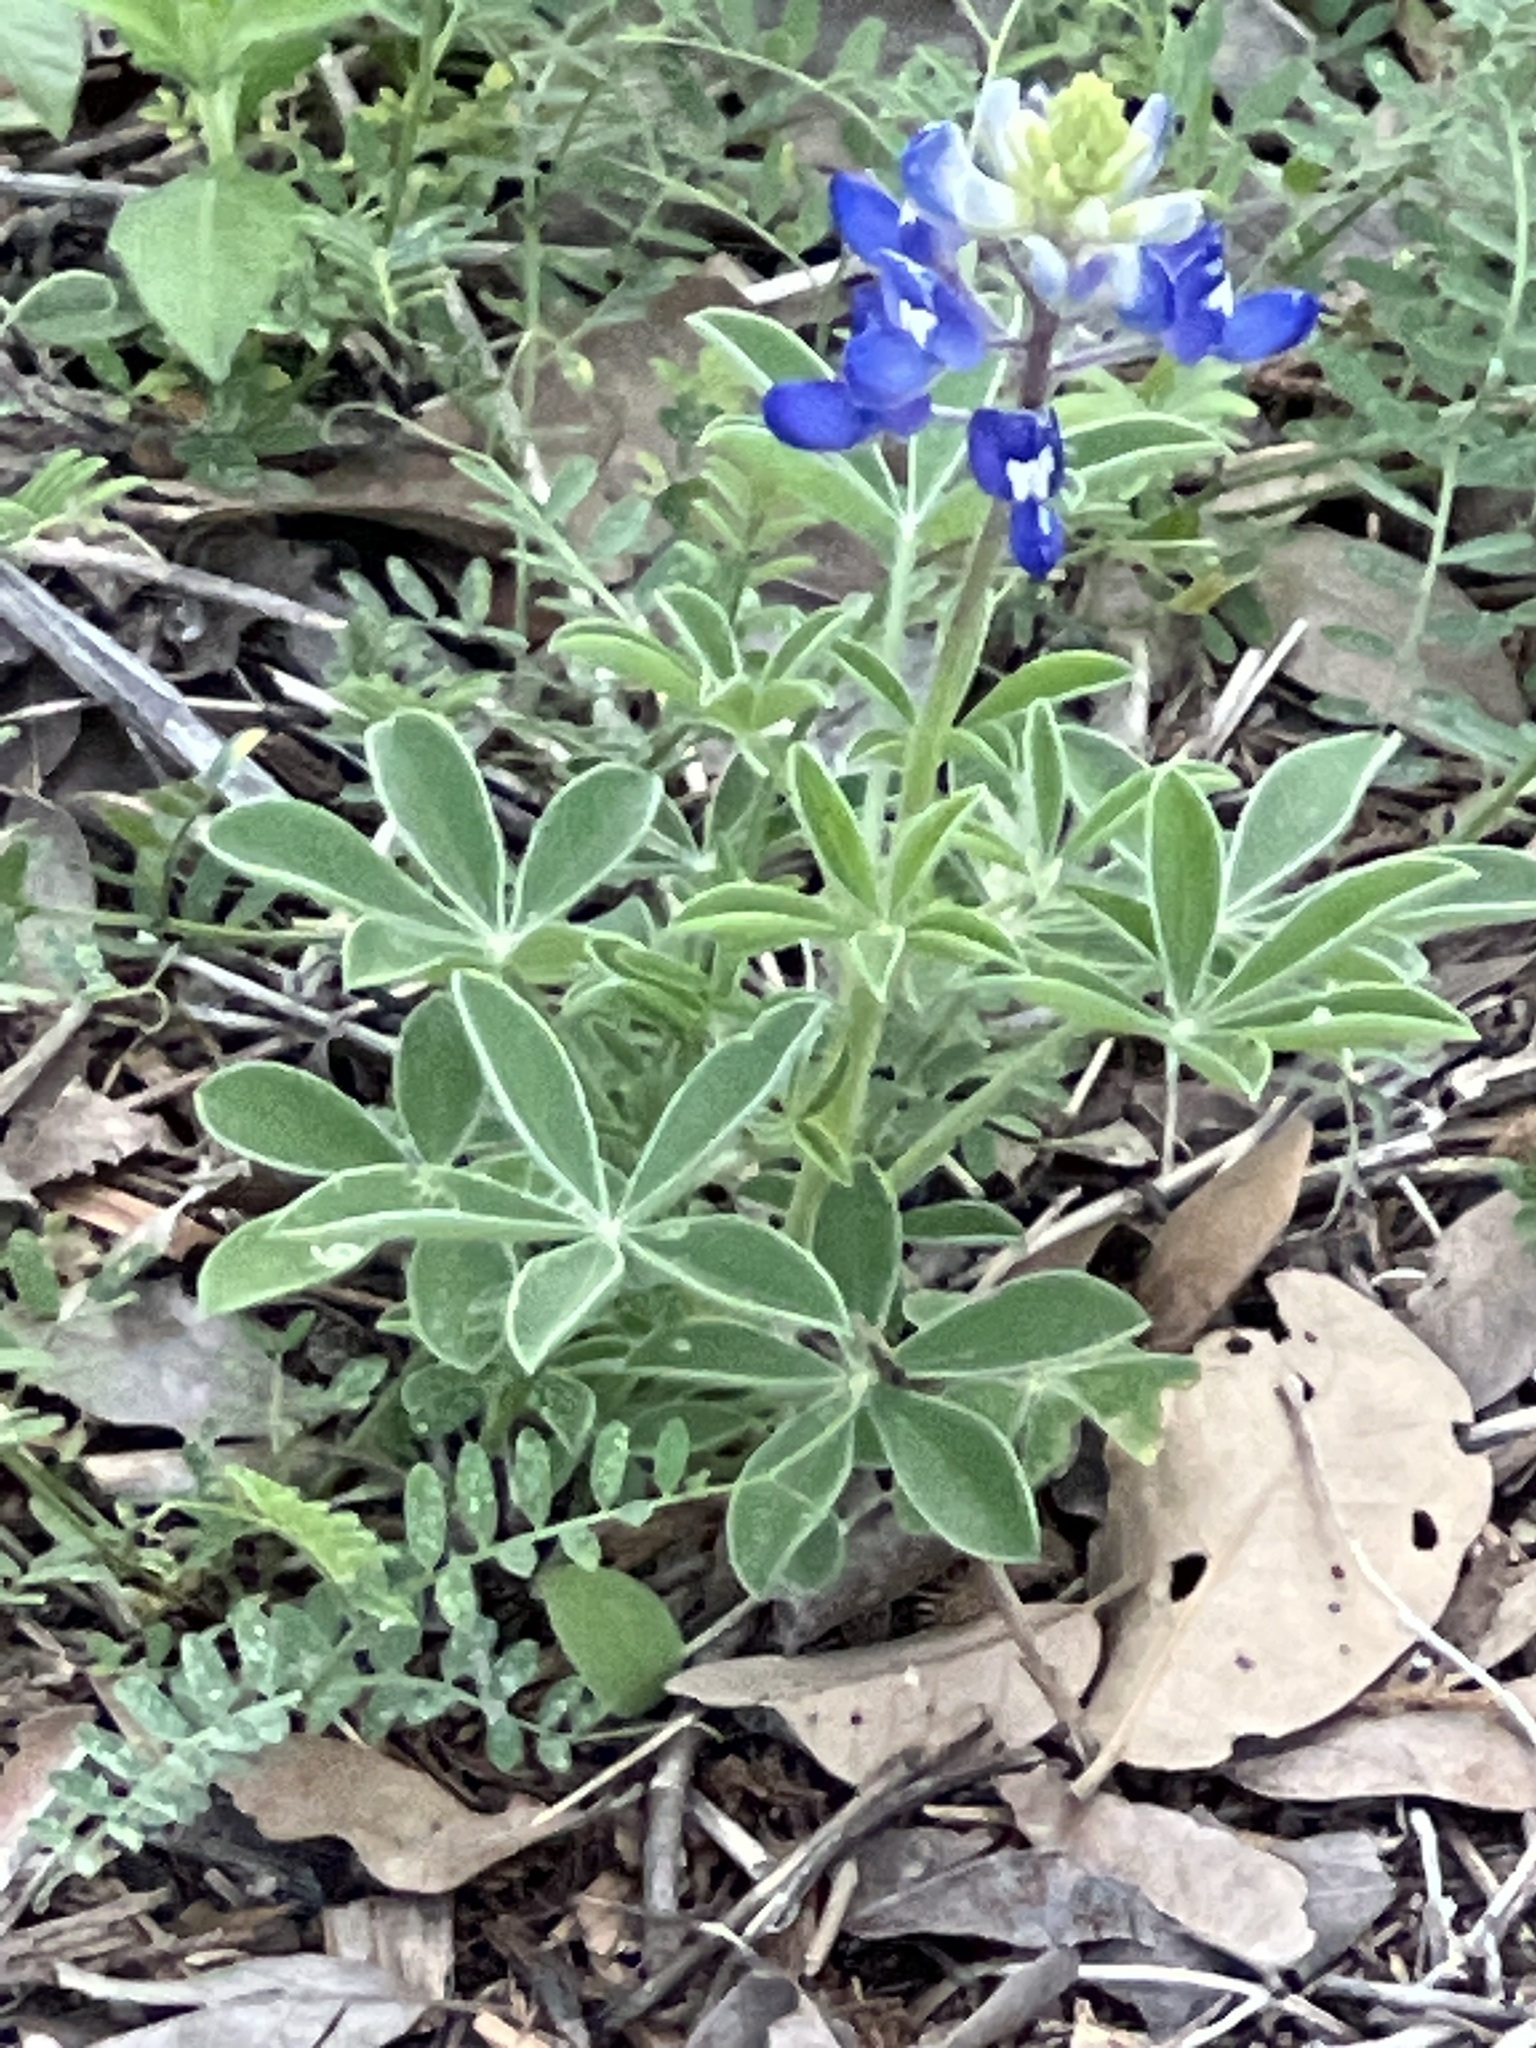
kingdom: Plantae
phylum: Tracheophyta
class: Magnoliopsida
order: Fabales
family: Fabaceae
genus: Lupinus
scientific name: Lupinus texensis
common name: Texas bluebonnet
